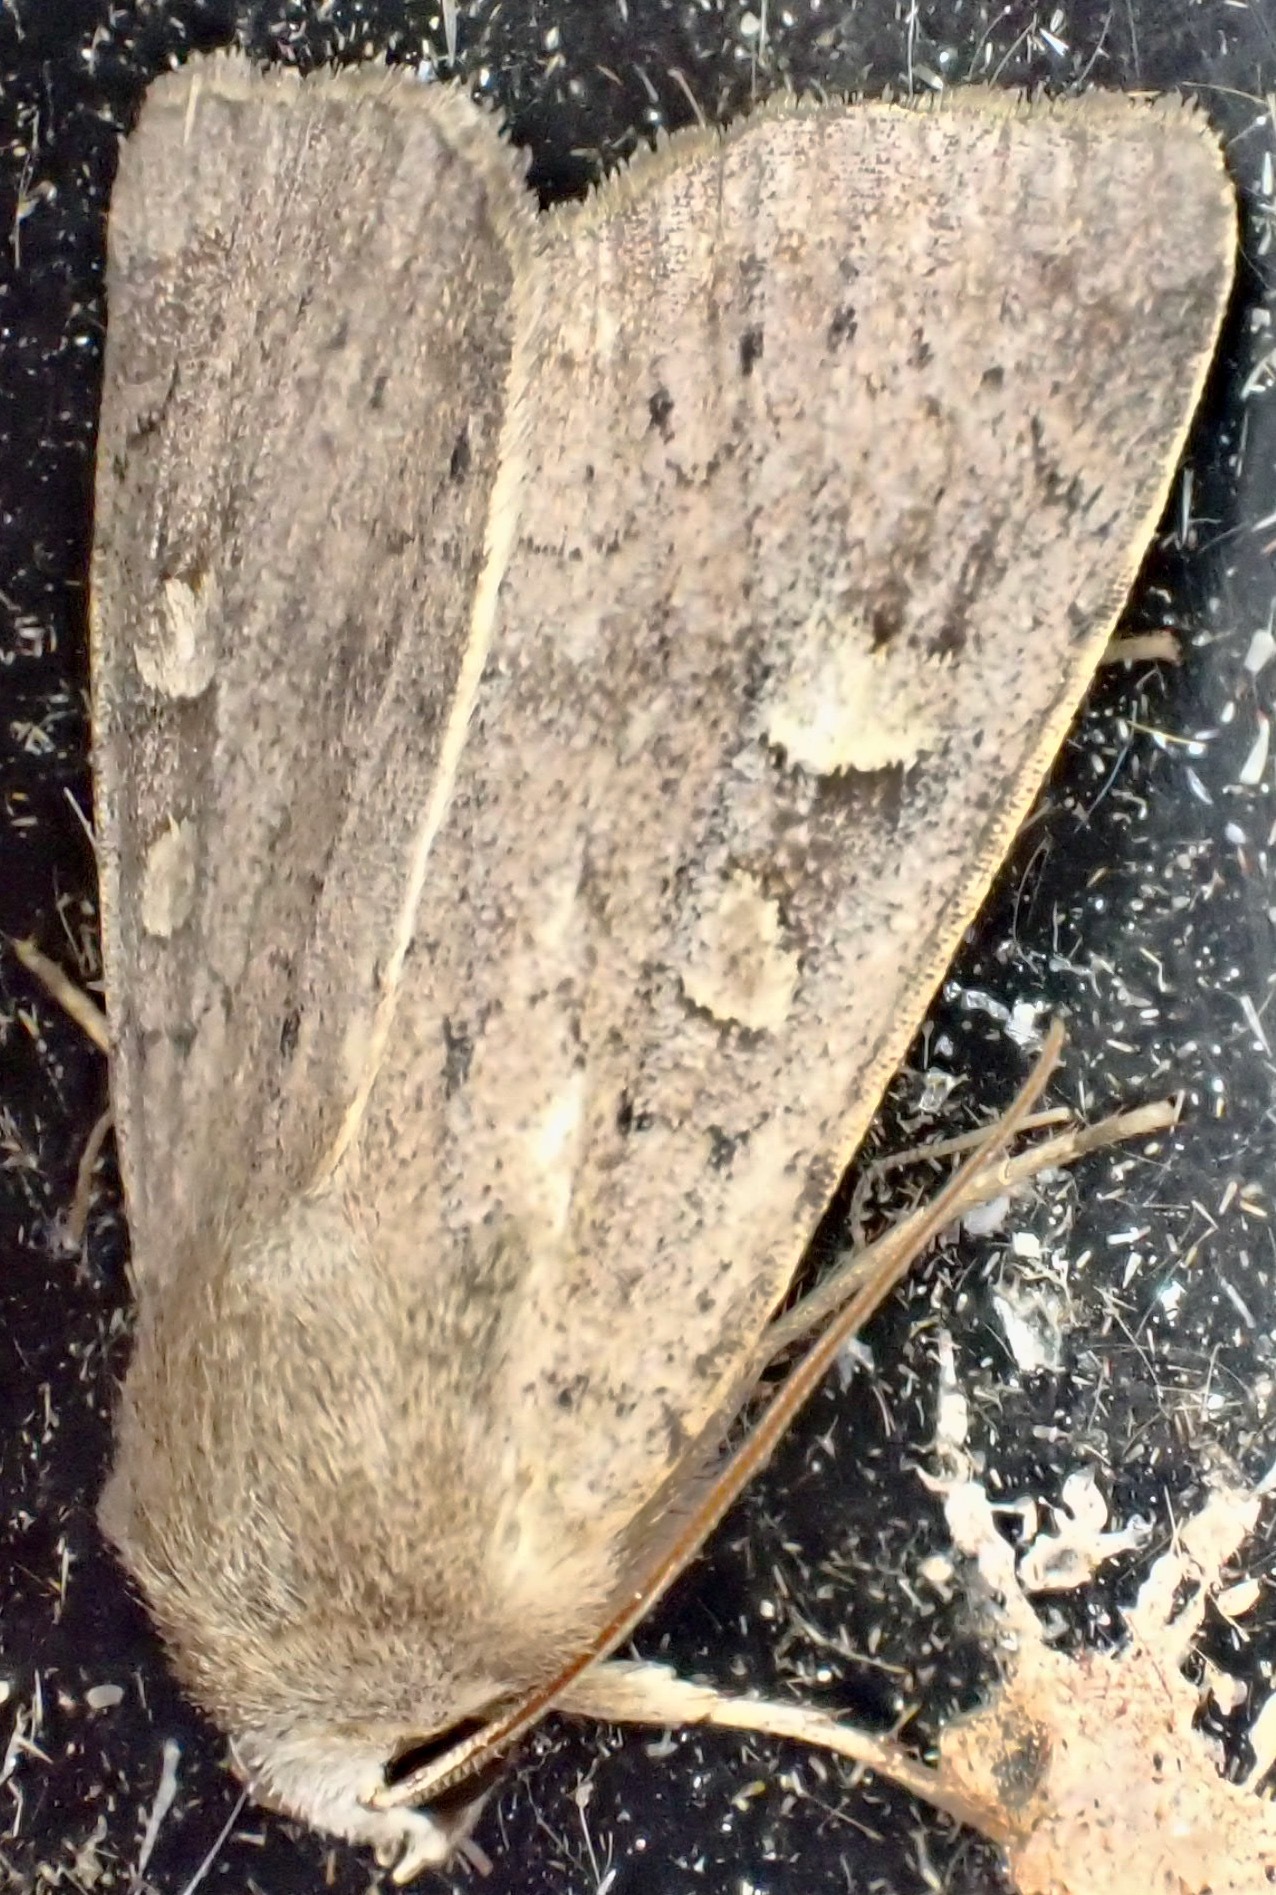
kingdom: Animalia
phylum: Arthropoda
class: Insecta
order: Lepidoptera
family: Noctuidae
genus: Xestia
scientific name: Xestia xanthographa
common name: Square-spot rustic
